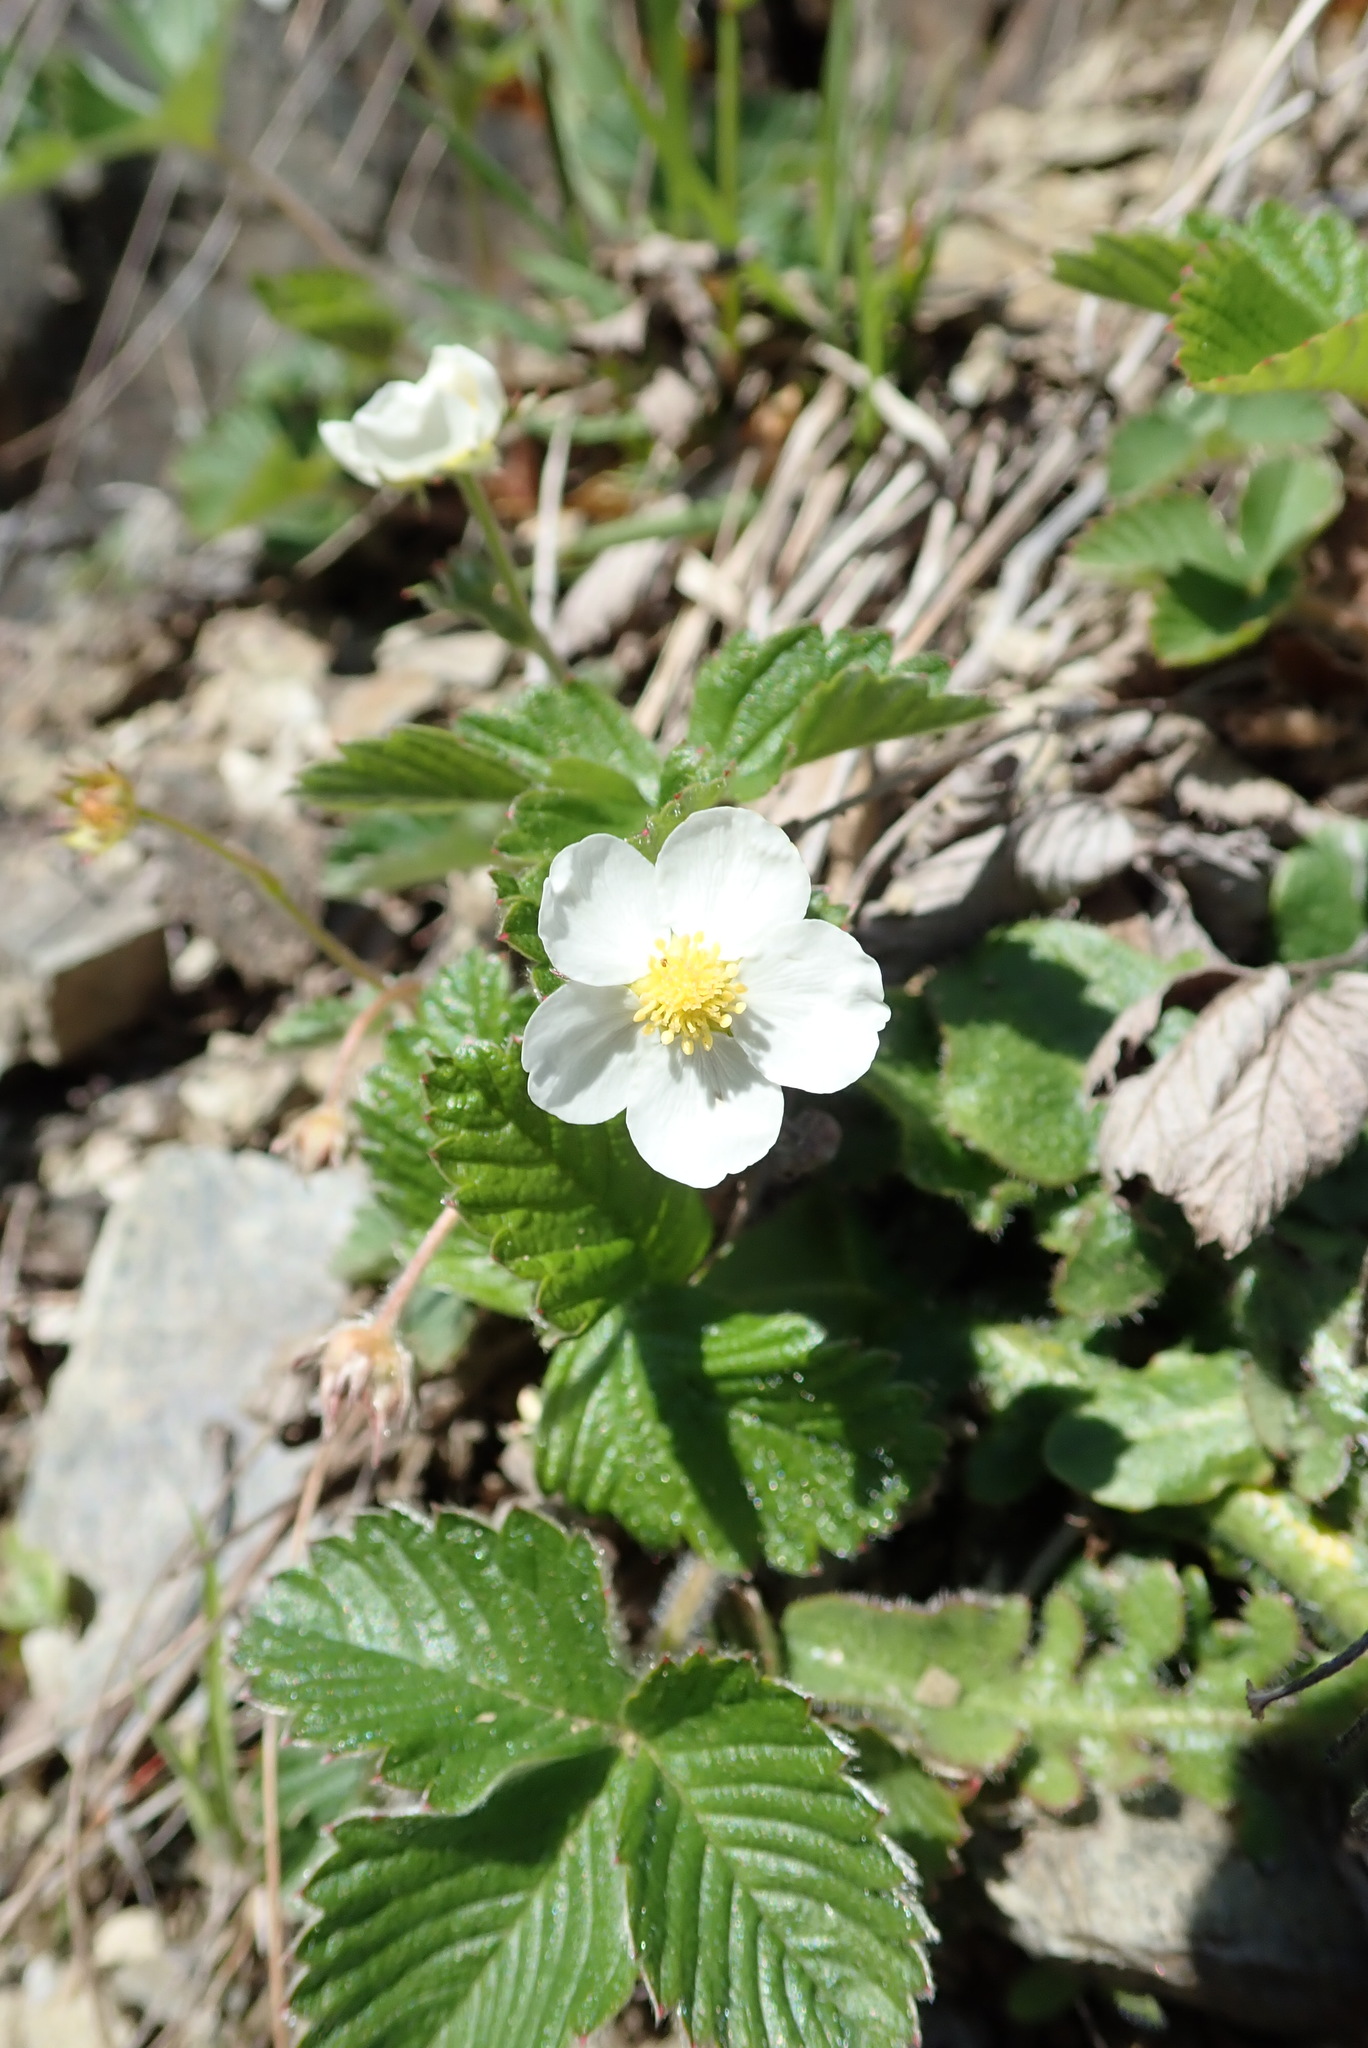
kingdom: Plantae
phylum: Tracheophyta
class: Magnoliopsida
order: Rosales
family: Rosaceae
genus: Fragaria
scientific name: Fragaria vesca
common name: Wild strawberry
